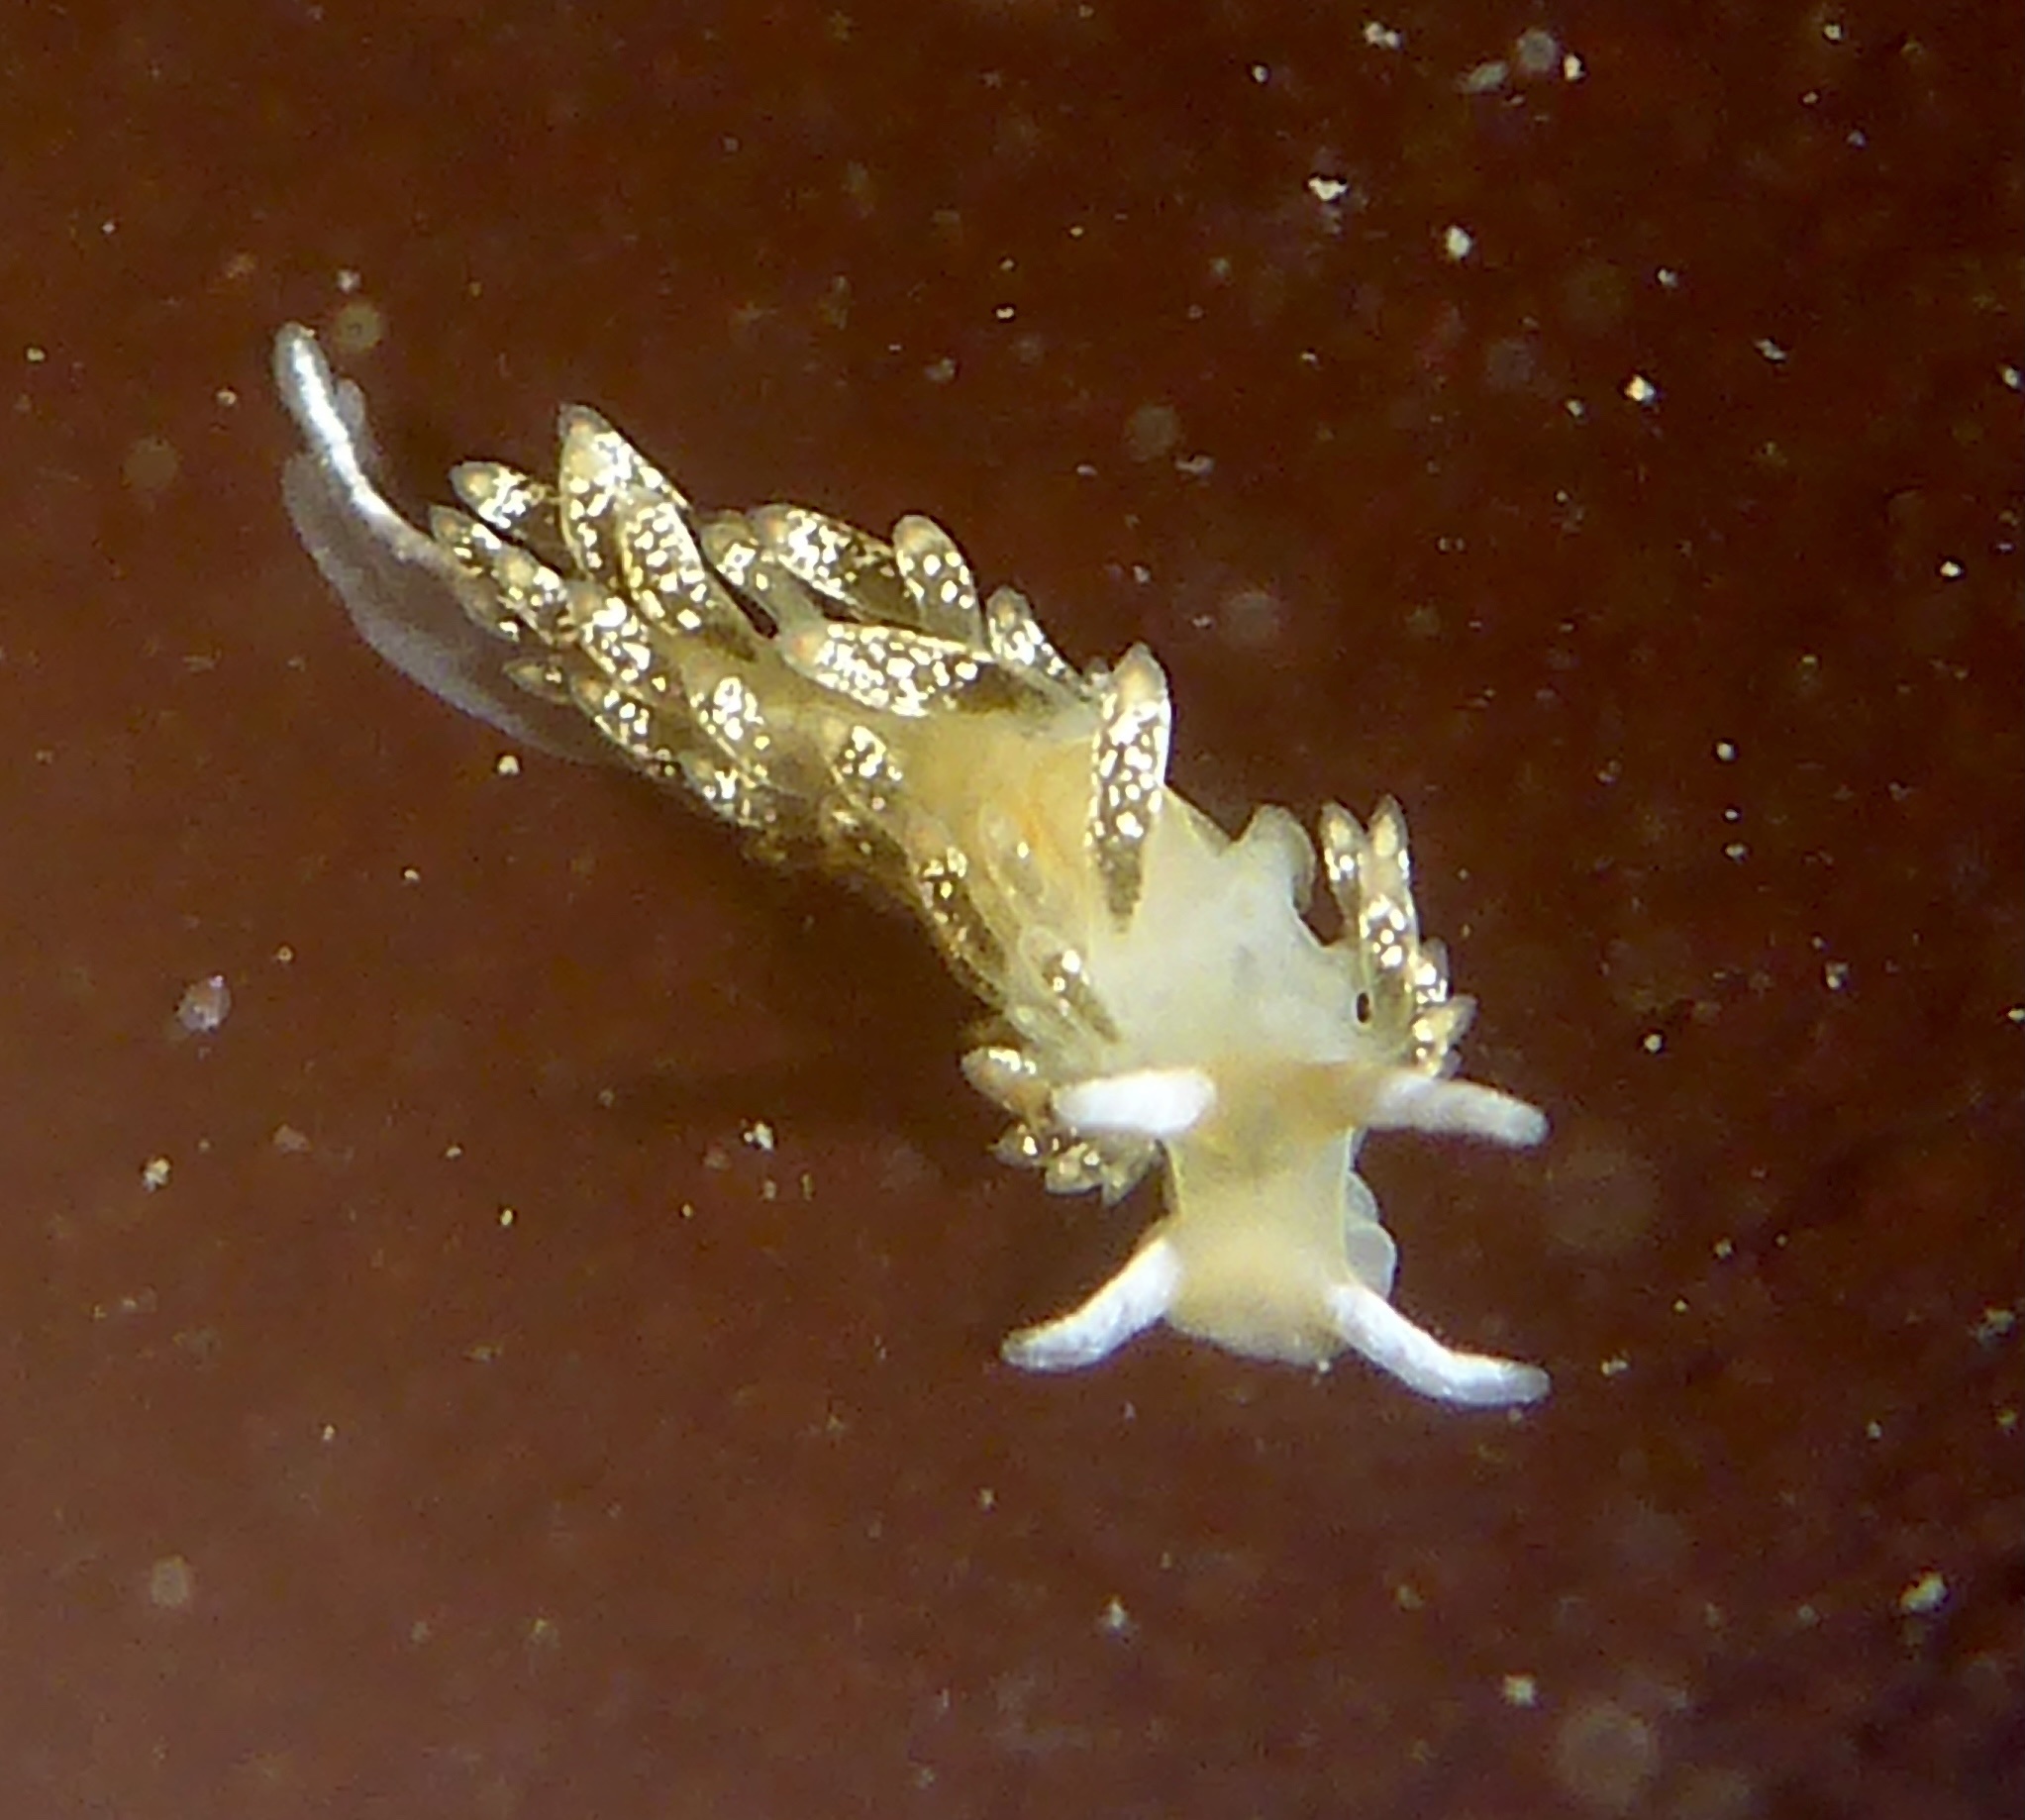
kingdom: Animalia
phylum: Mollusca
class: Gastropoda
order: Nudibranchia
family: Trinchesiidae
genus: Diaphoreolis
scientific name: Diaphoreolis flavovulta
